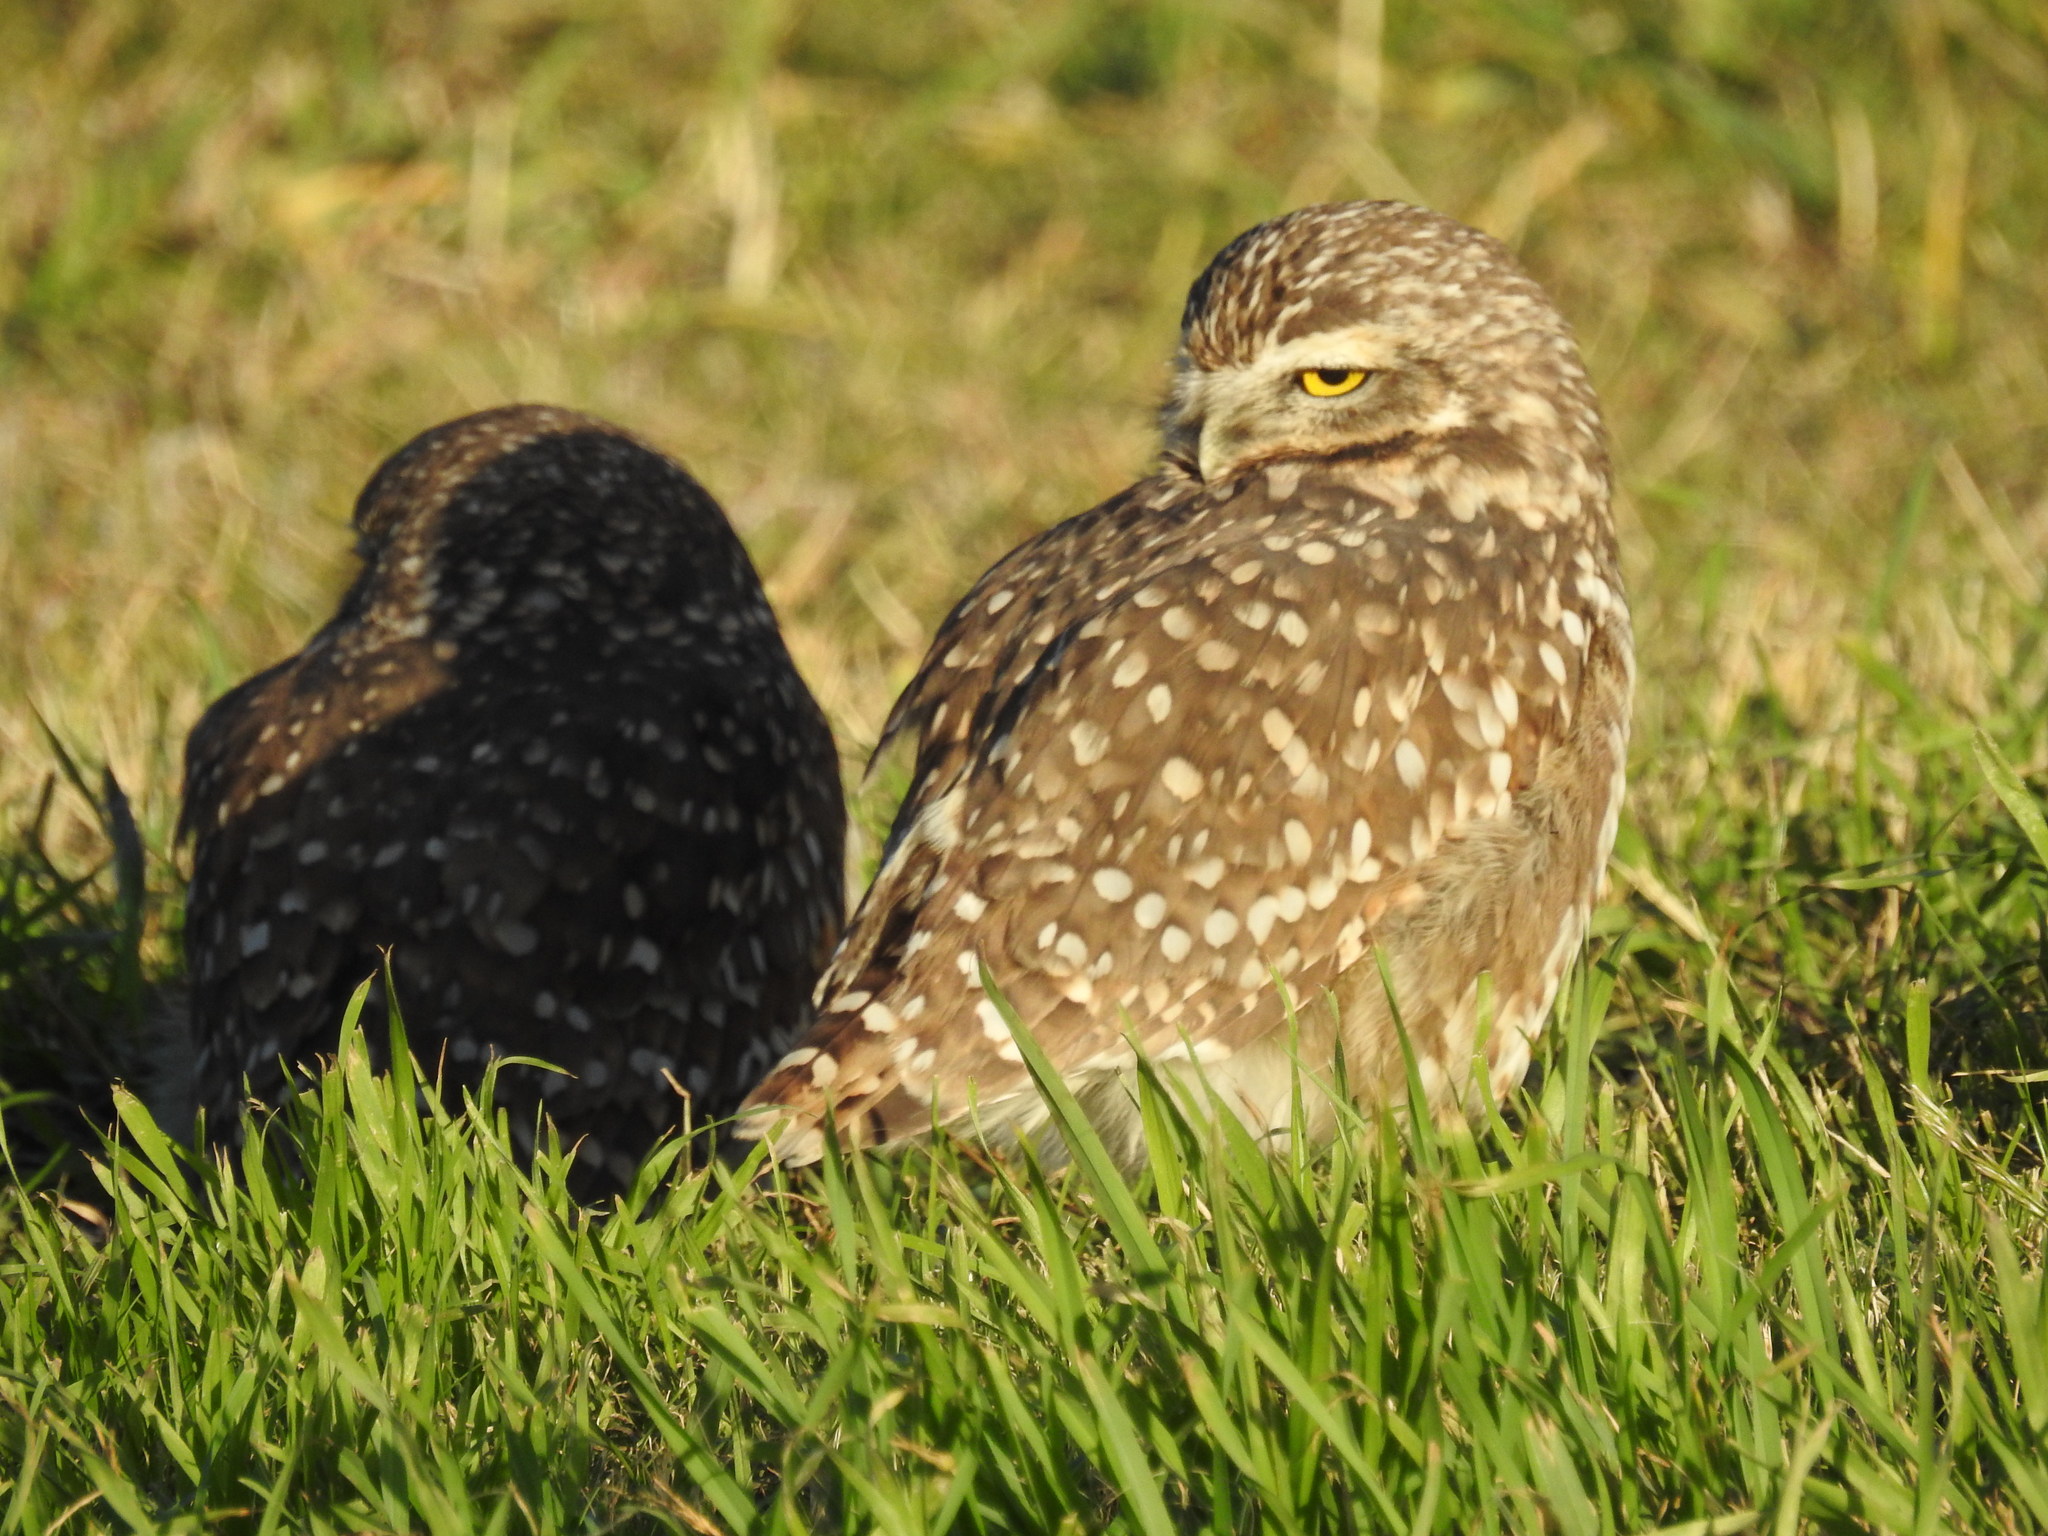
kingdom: Animalia
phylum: Chordata
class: Aves
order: Strigiformes
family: Strigidae
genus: Athene
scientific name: Athene cunicularia
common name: Burrowing owl
